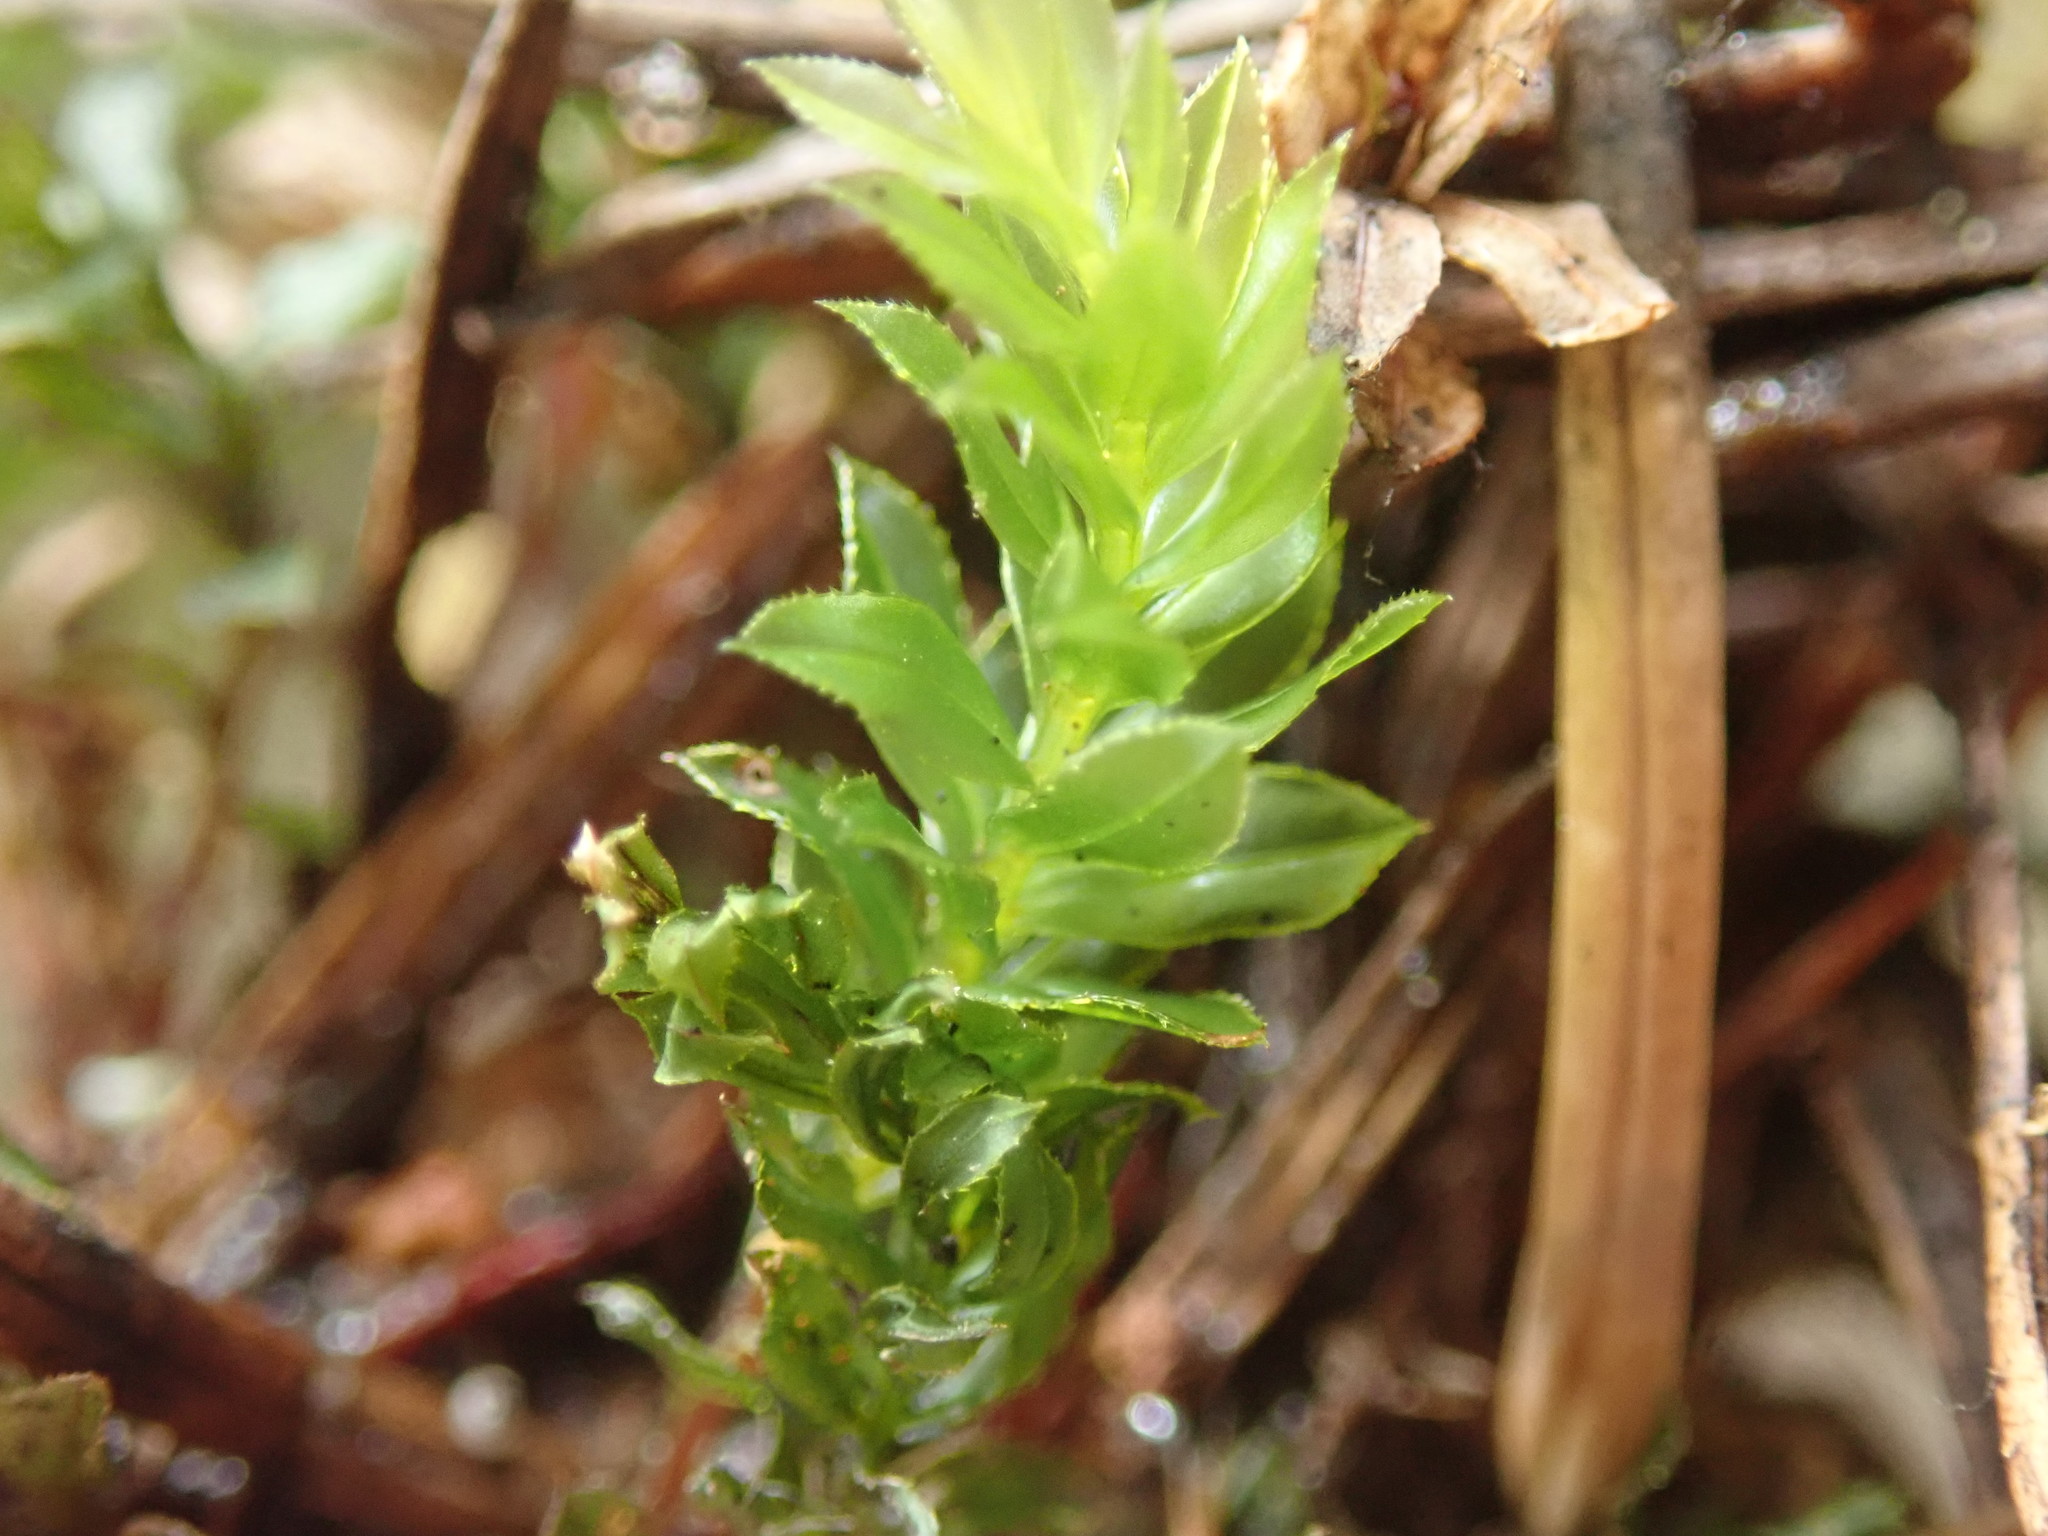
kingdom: Plantae
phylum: Bryophyta
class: Bryopsida
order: Bryales
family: Mniaceae
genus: Mnium
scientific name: Mnium spinulosum
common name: Red-mouthed leafy moss
